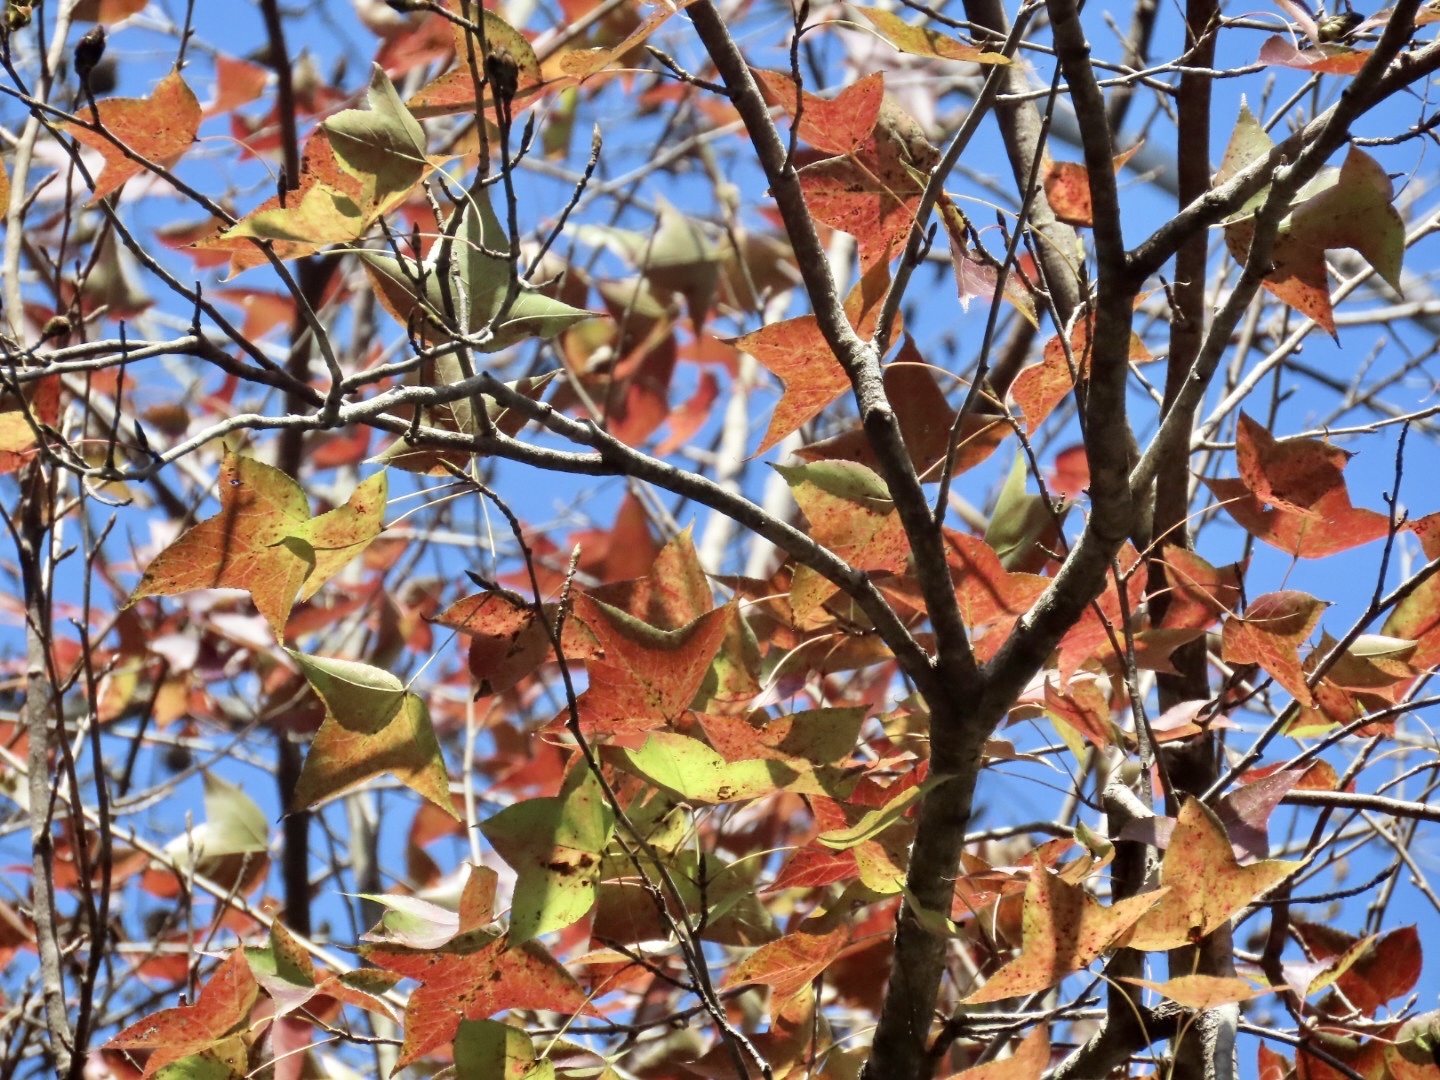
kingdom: Plantae
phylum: Tracheophyta
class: Magnoliopsida
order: Saxifragales
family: Altingiaceae
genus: Liquidambar
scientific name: Liquidambar formosana
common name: Chinese sweet gum
